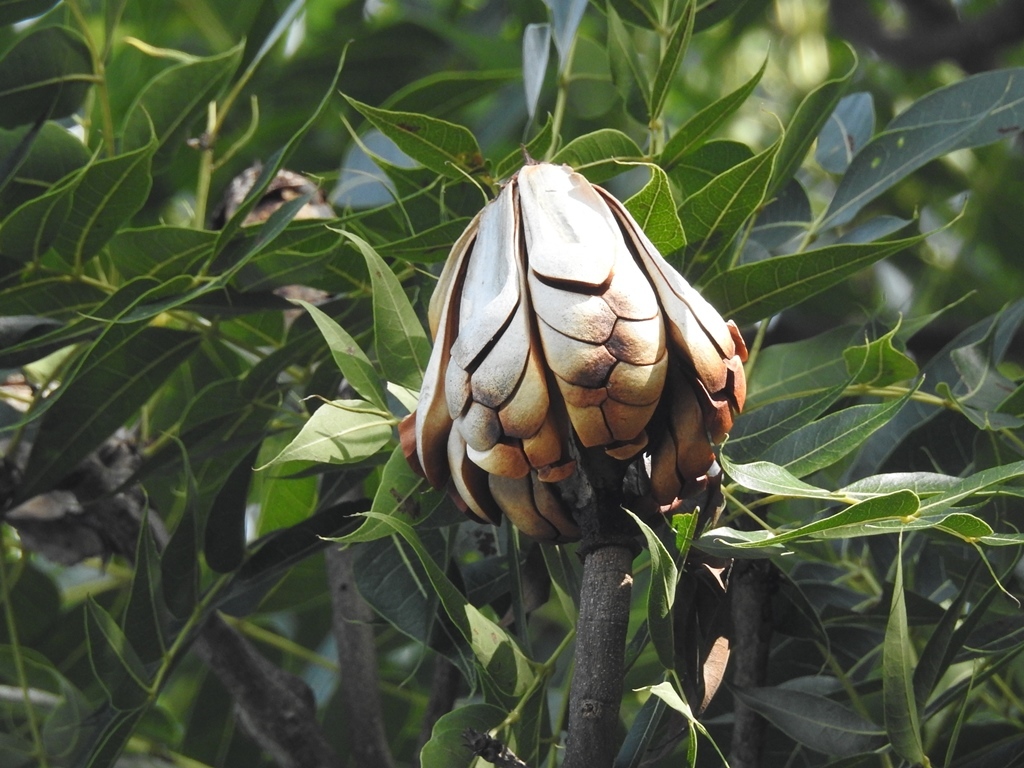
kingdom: Plantae
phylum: Tracheophyta
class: Magnoliopsida
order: Sapindales
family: Meliaceae
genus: Swietenia
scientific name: Swietenia humilis
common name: Pacific coast mahogany
